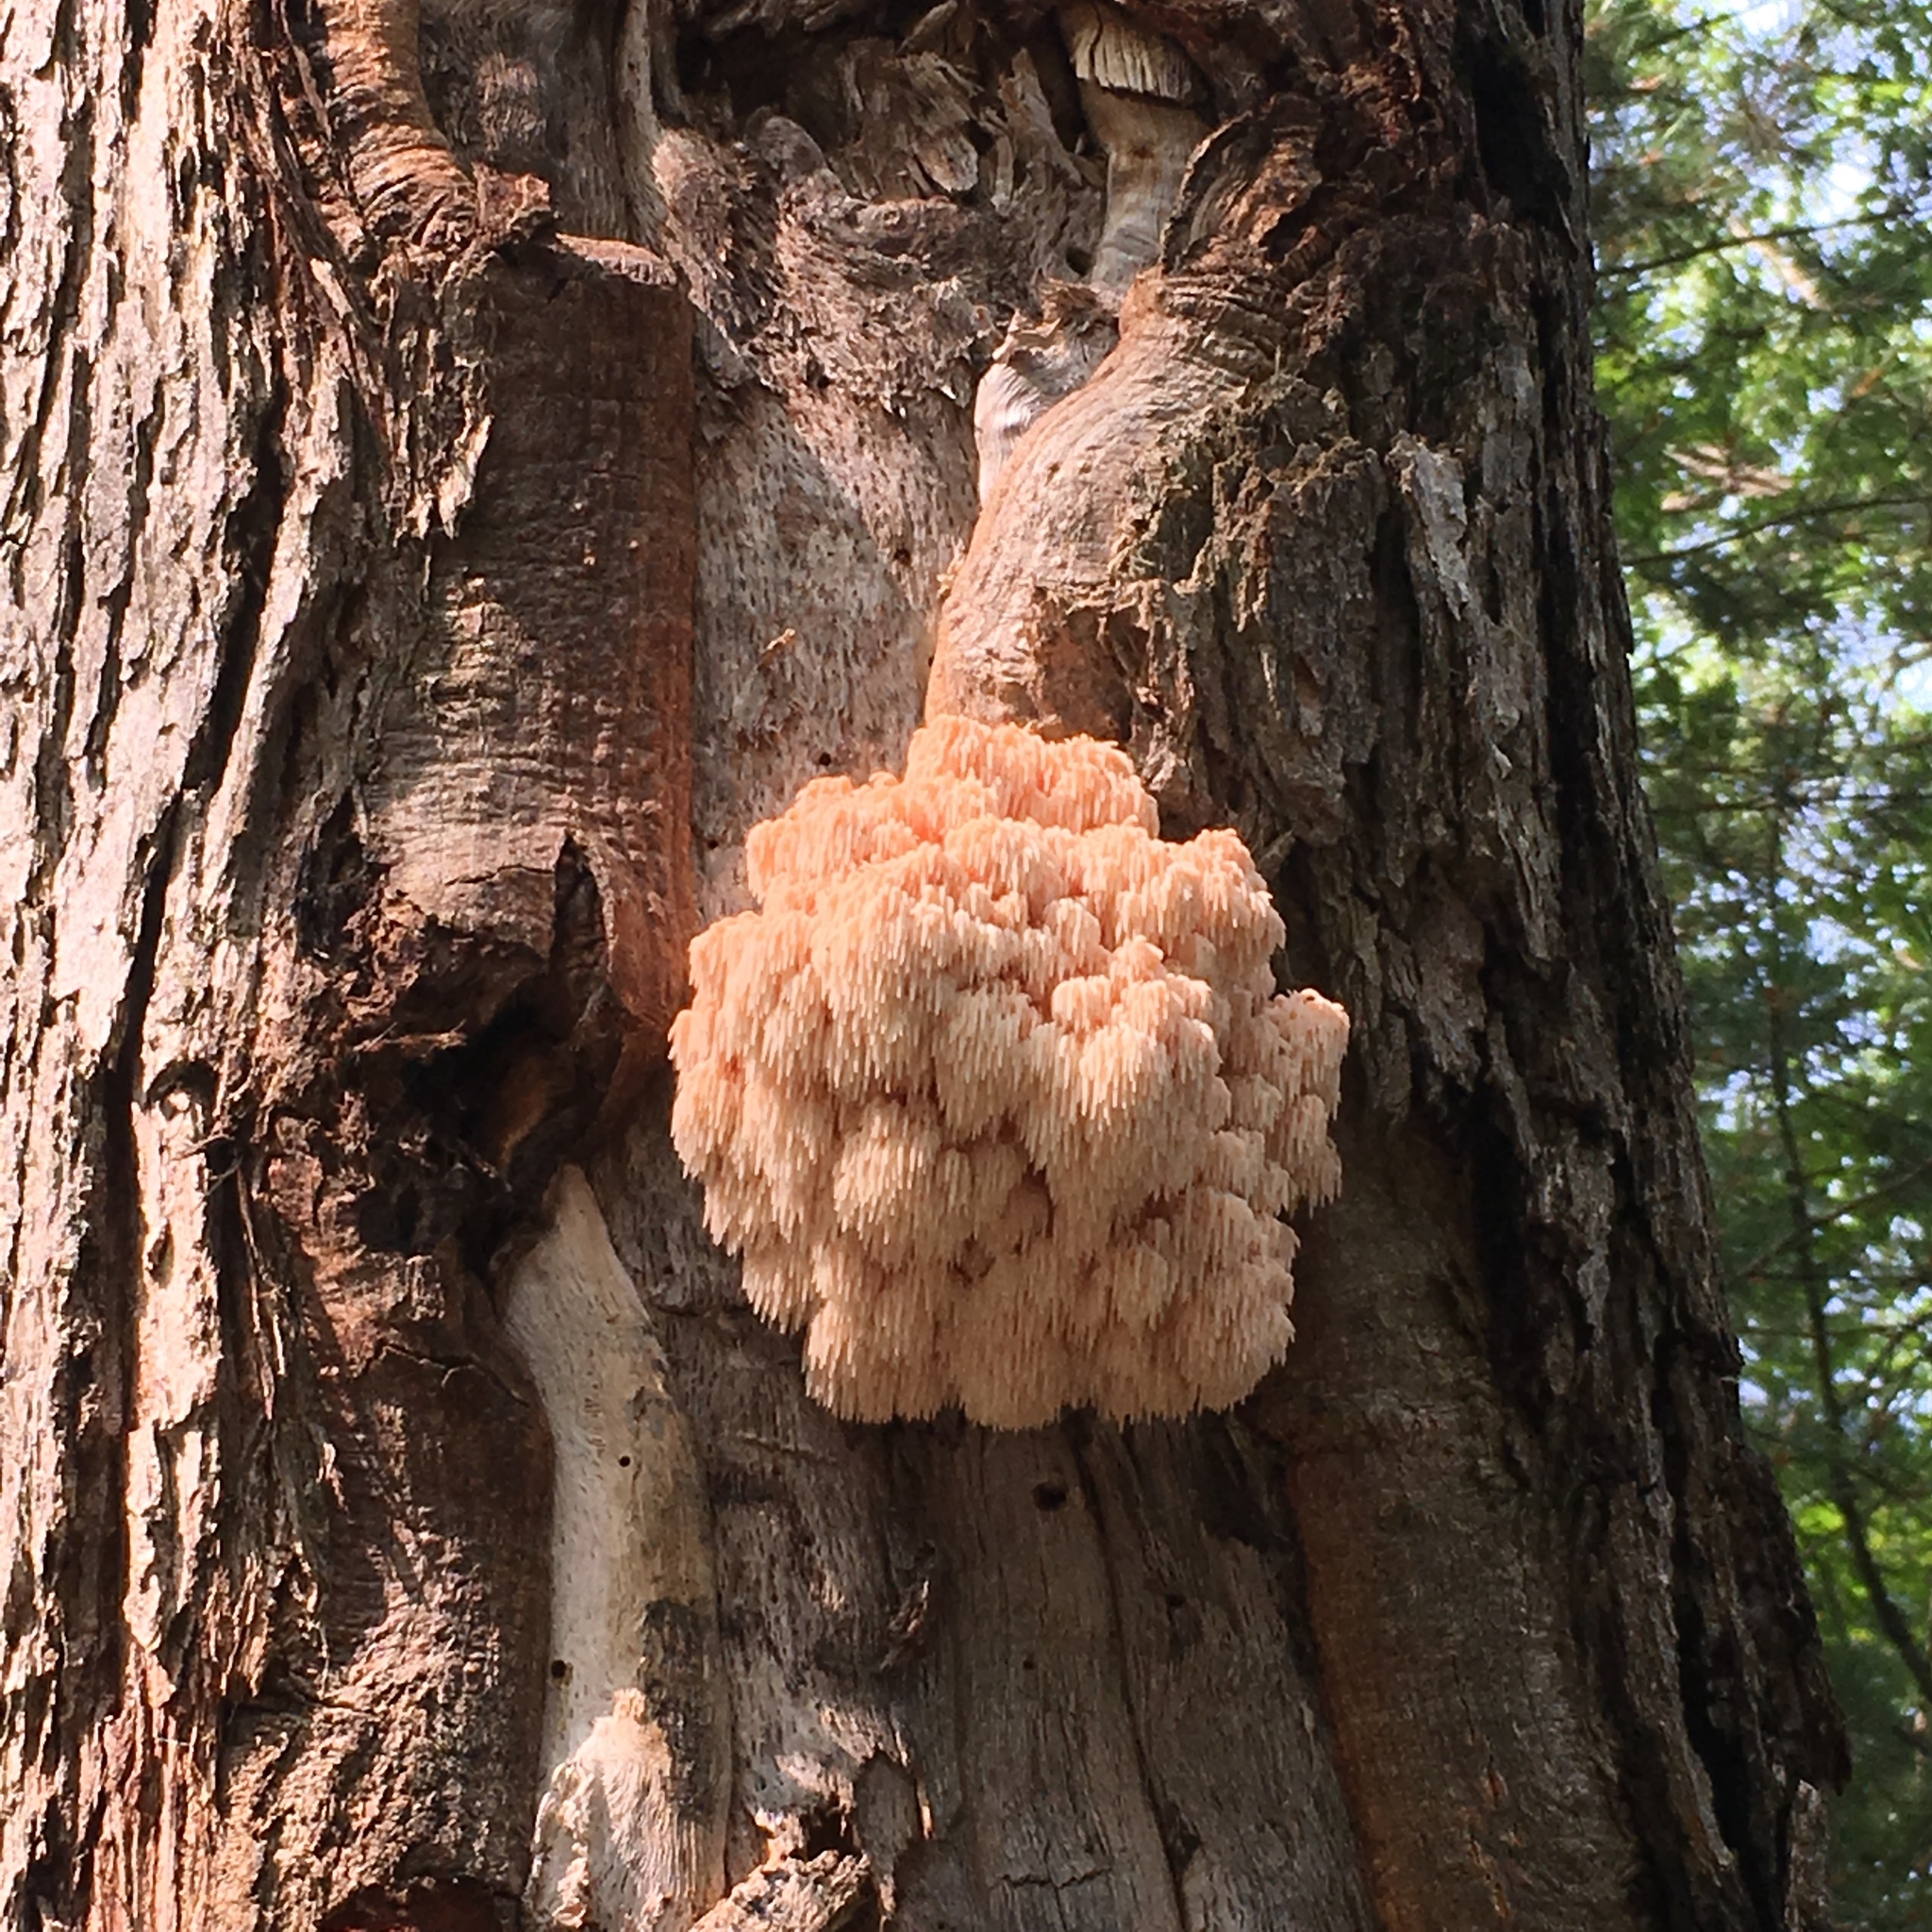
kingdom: Fungi
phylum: Basidiomycota
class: Agaricomycetes
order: Russulales
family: Hericiaceae
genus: Hericium
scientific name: Hericium americanum
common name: Bear's head tooth
